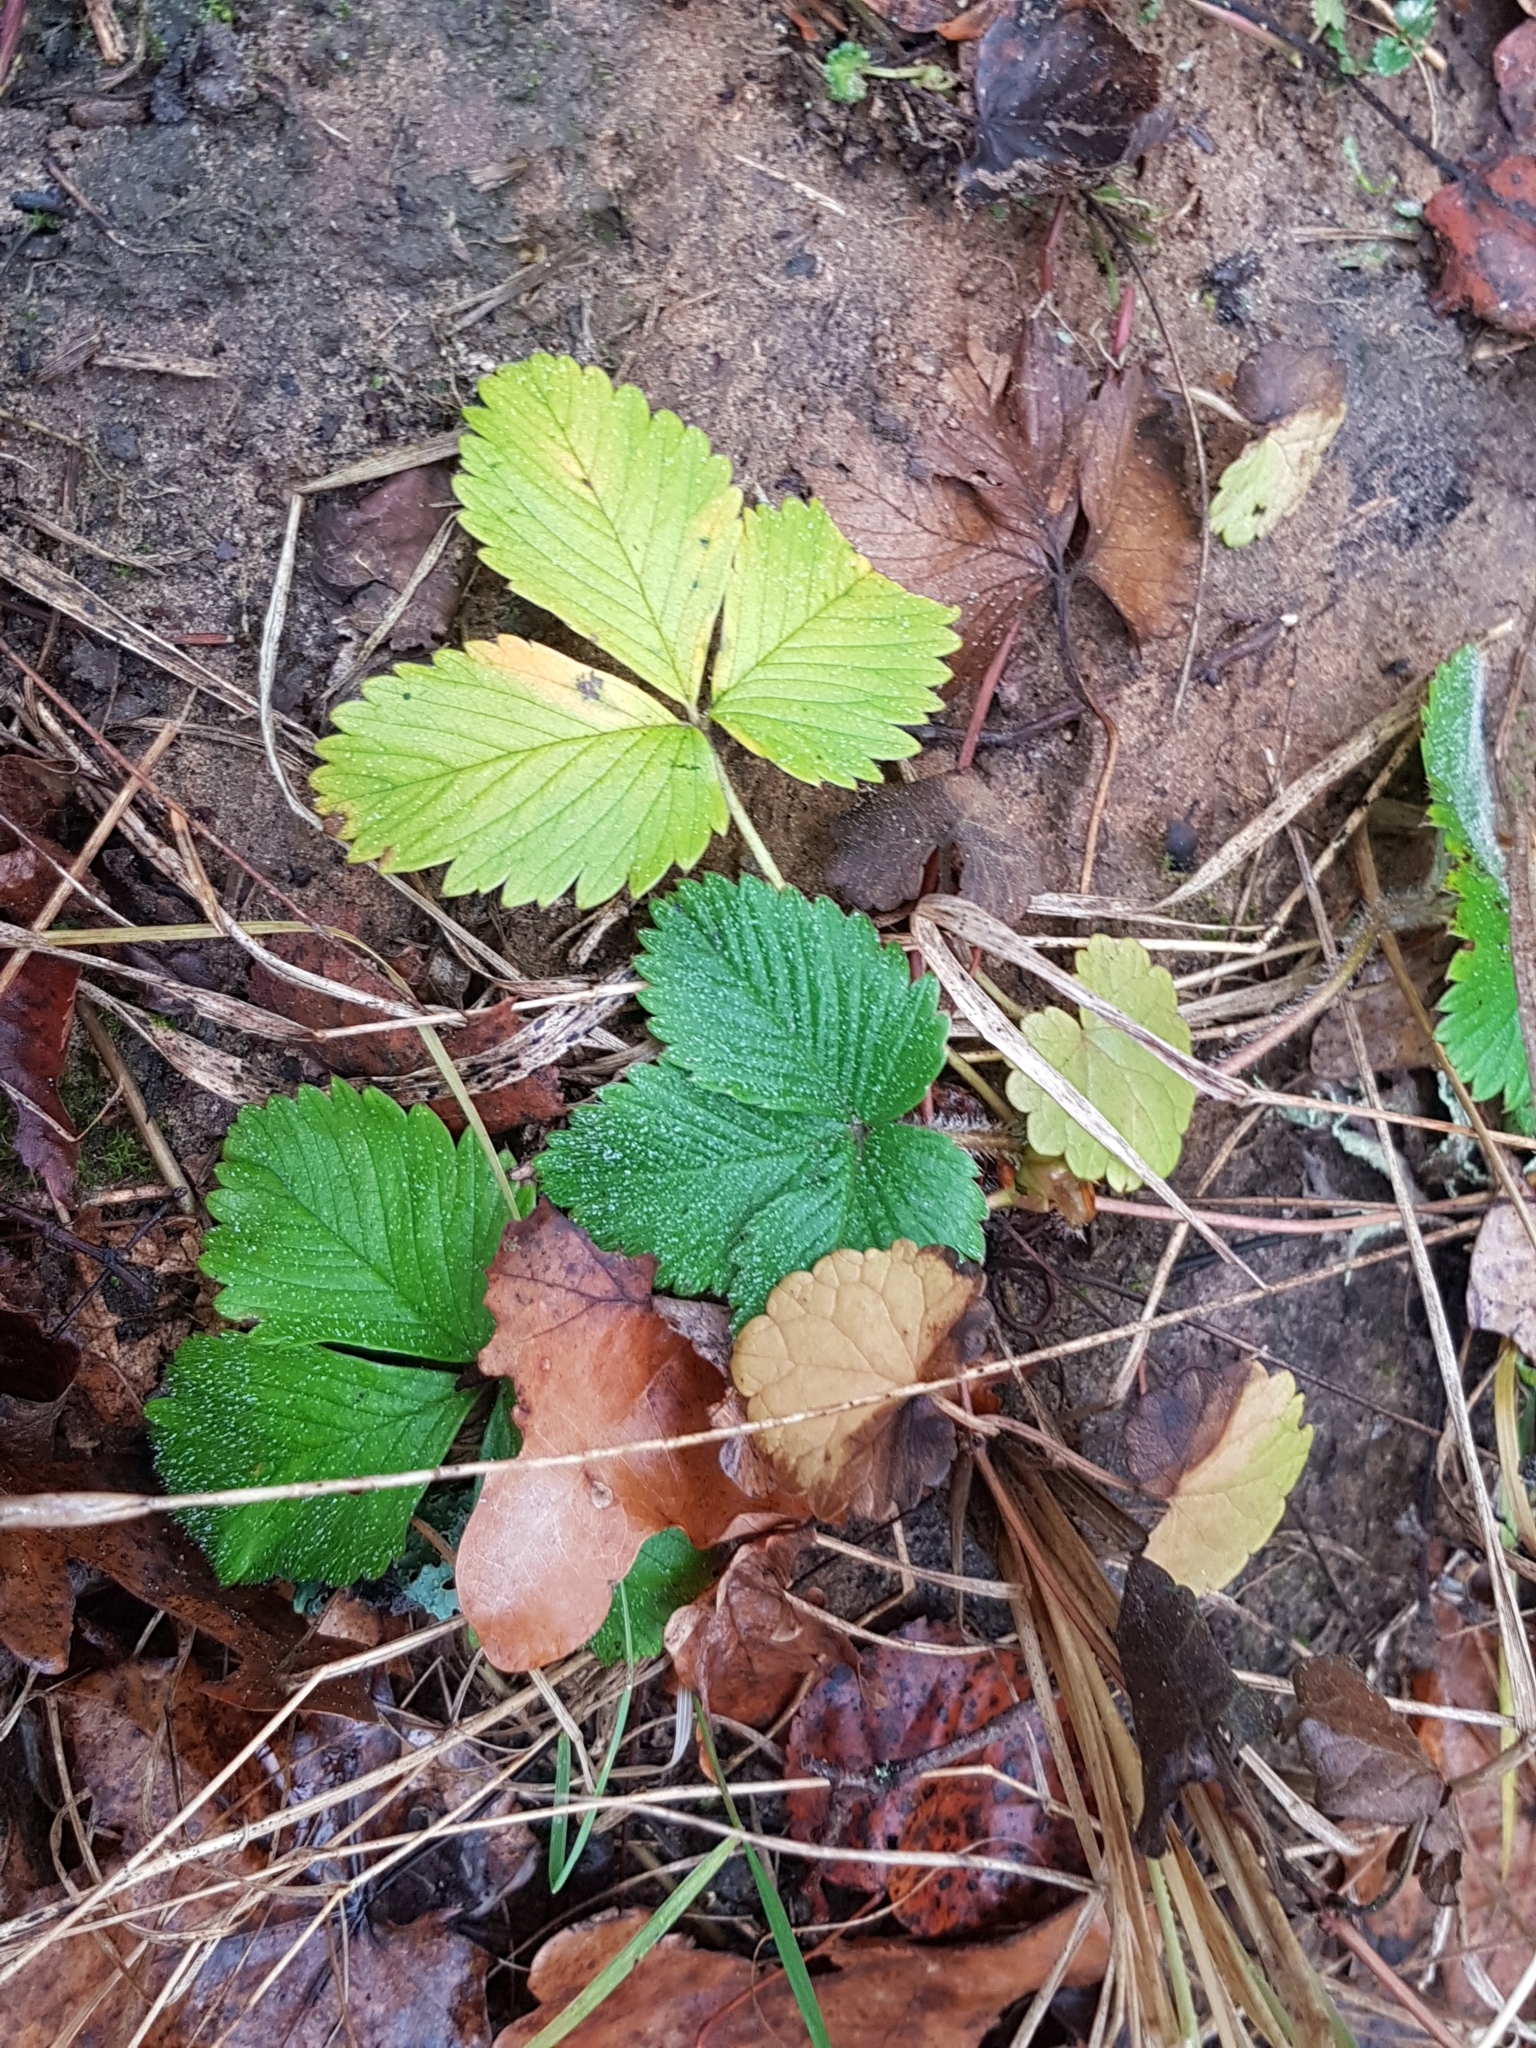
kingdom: Plantae
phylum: Tracheophyta
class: Magnoliopsida
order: Rosales
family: Rosaceae
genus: Fragaria
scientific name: Fragaria vesca
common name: Wild strawberry
